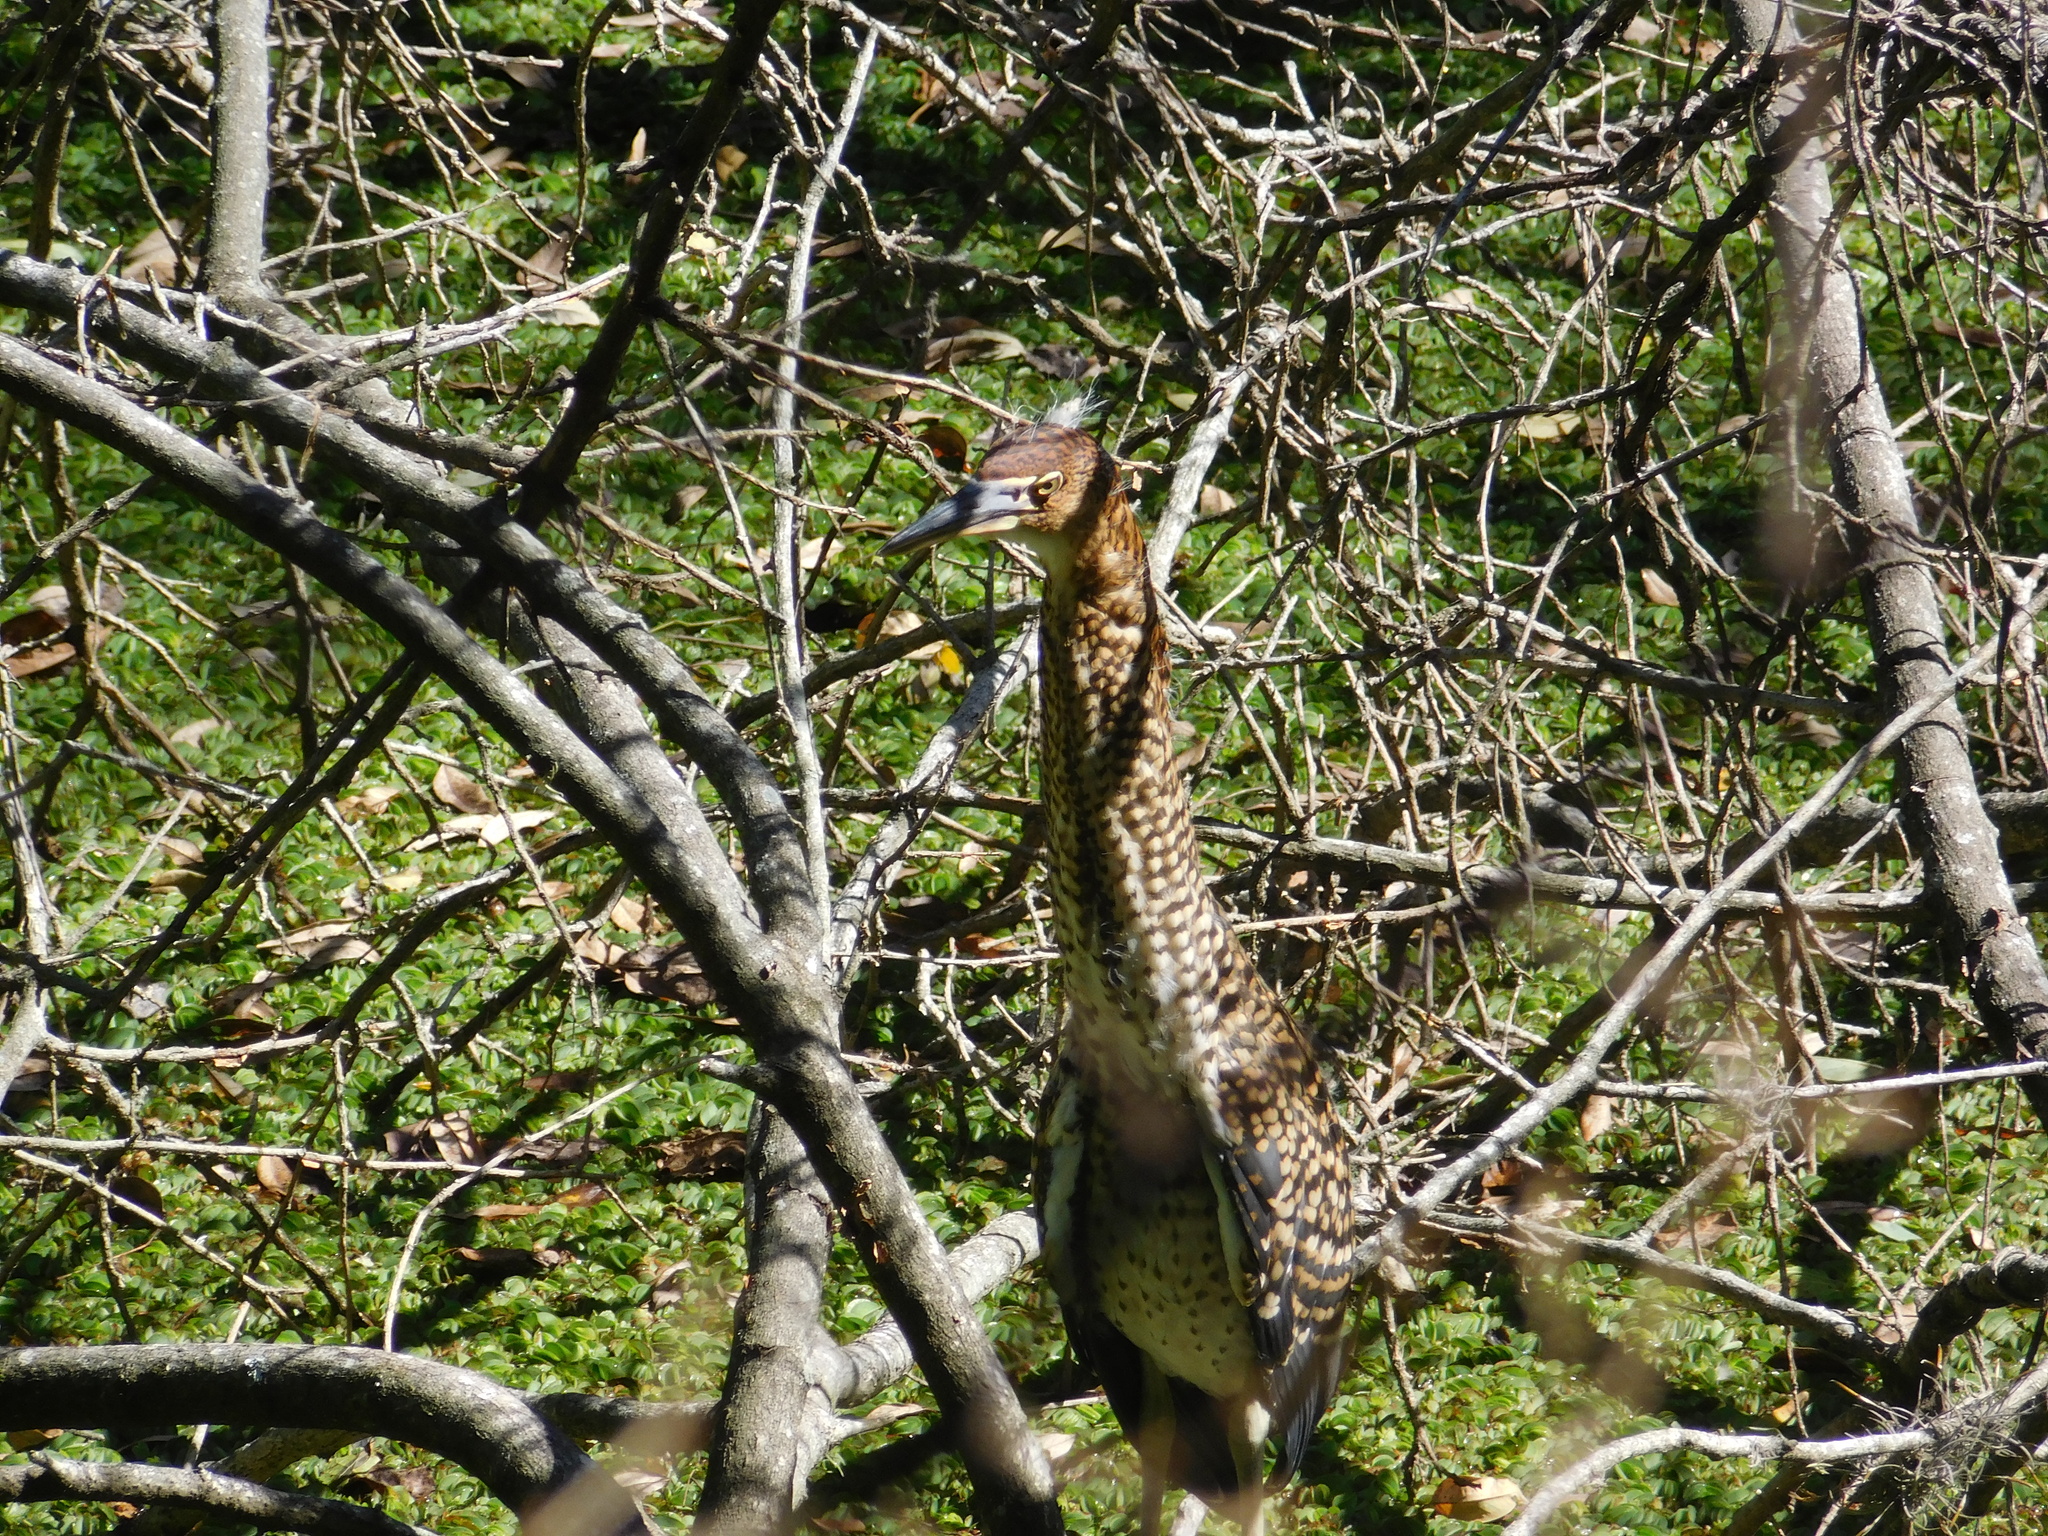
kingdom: Animalia
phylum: Chordata
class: Aves
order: Pelecaniformes
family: Ardeidae
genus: Tigrisoma
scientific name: Tigrisoma lineatum
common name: Rufescent tiger-heron
